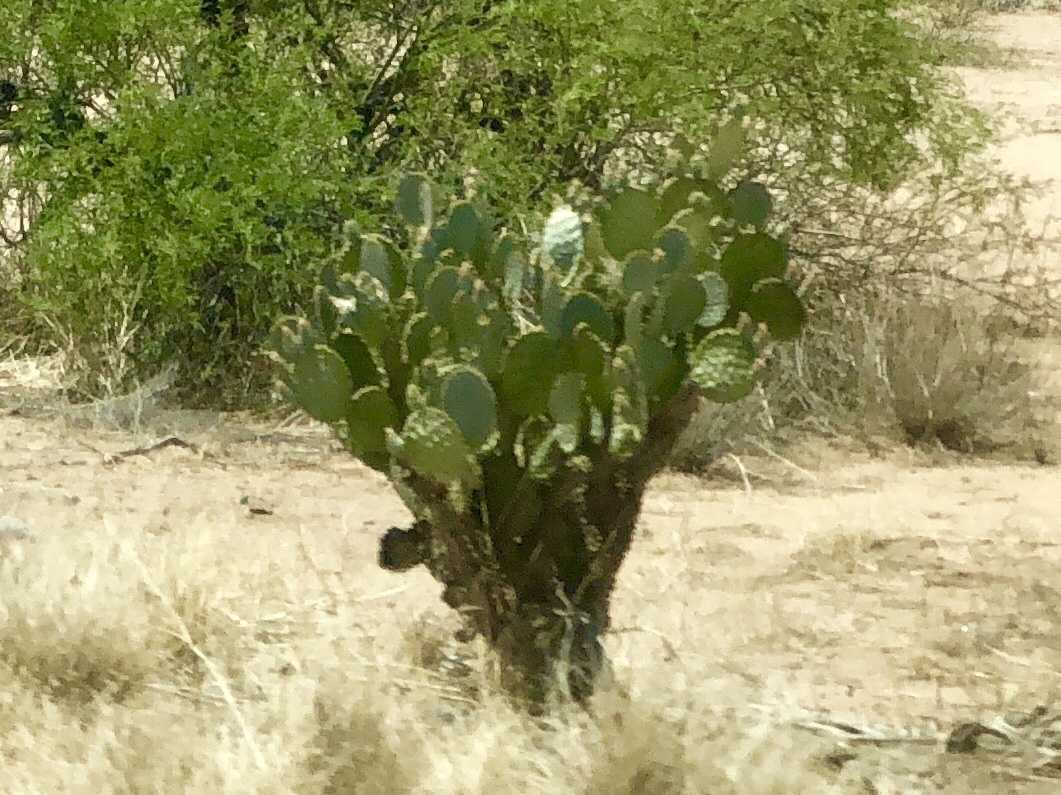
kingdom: Plantae
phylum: Tracheophyta
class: Magnoliopsida
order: Caryophyllales
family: Cactaceae
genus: Opuntia
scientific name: Opuntia chlorotica
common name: Dollar-joint prickly-pear
